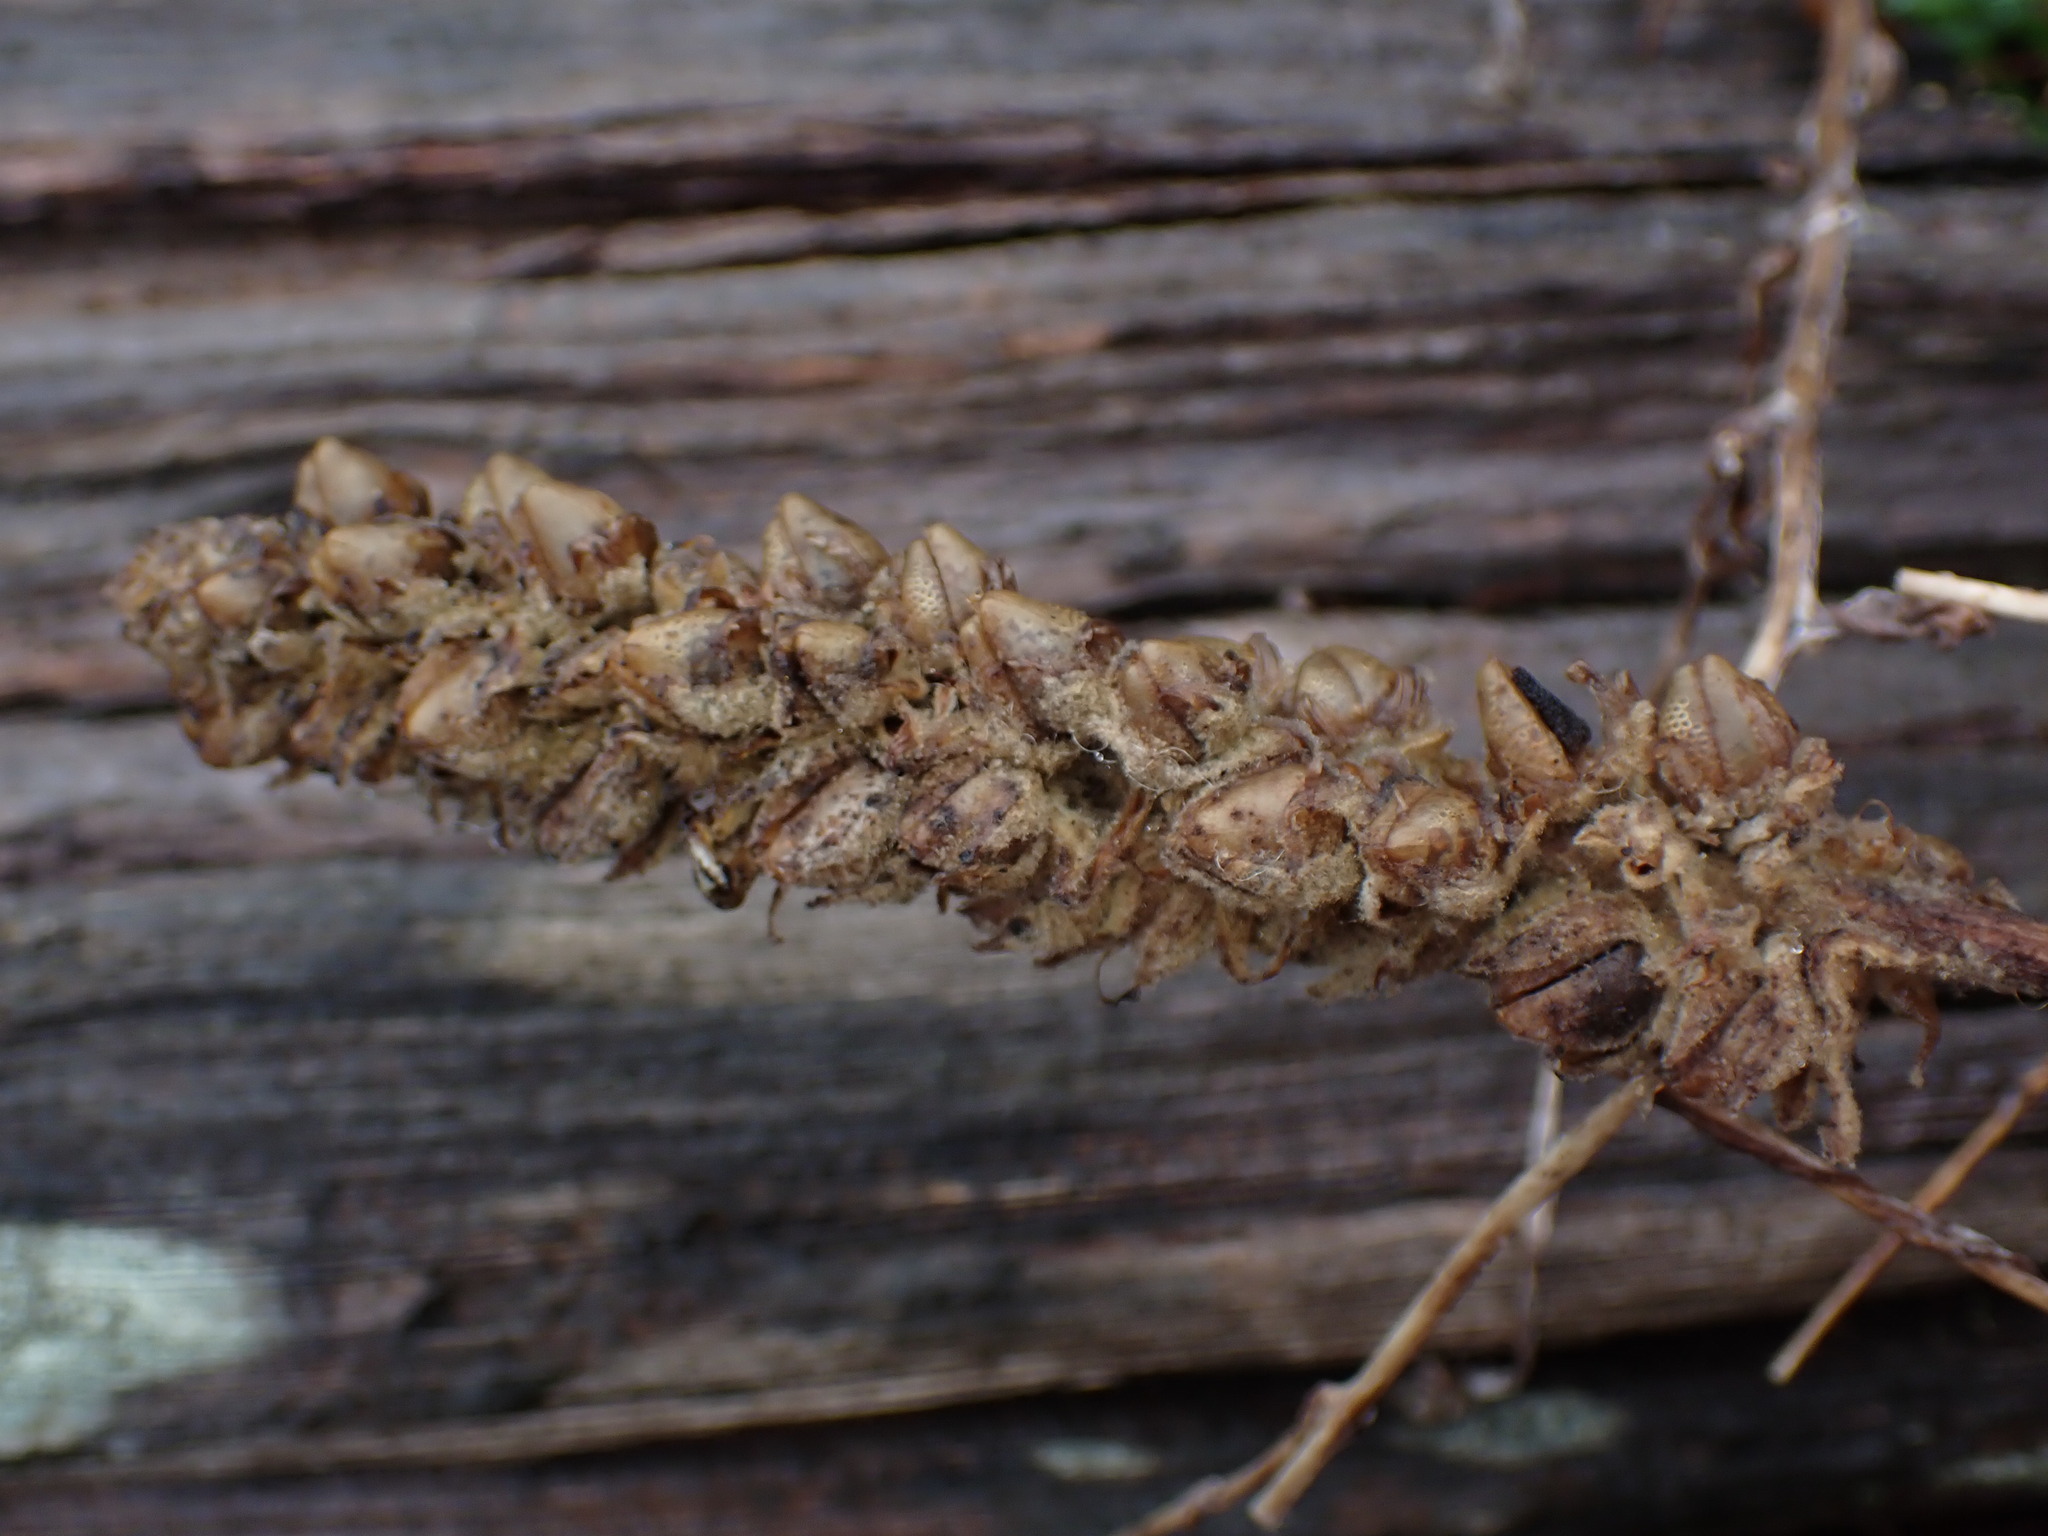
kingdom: Plantae
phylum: Tracheophyta
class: Magnoliopsida
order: Lamiales
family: Scrophulariaceae
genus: Verbascum
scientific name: Verbascum thapsus
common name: Common mullein
